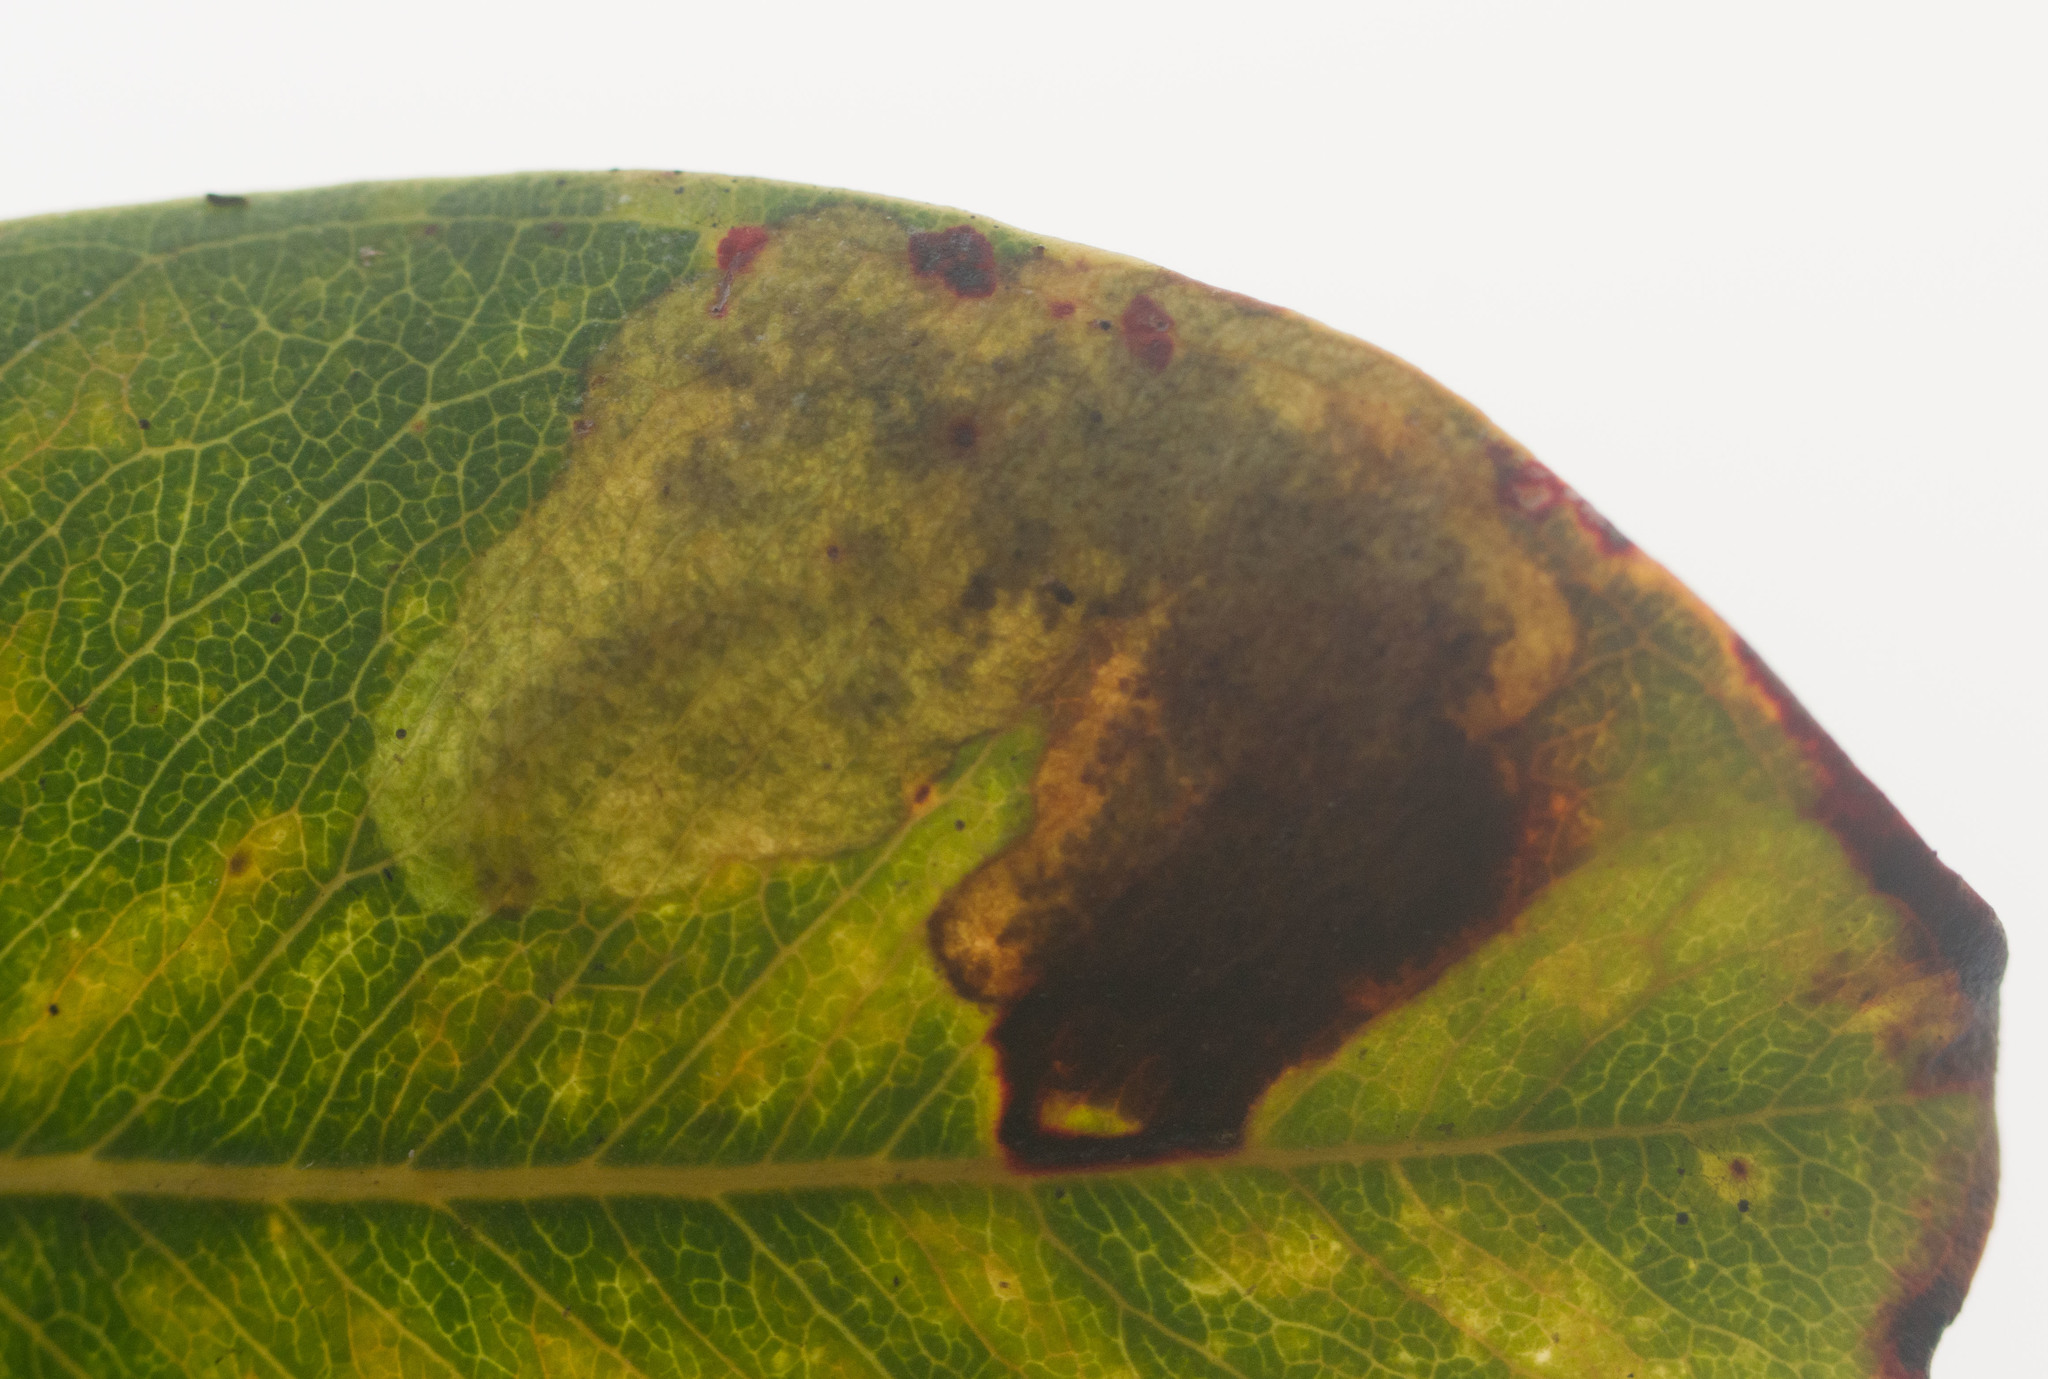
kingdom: Animalia
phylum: Arthropoda
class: Insecta
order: Lepidoptera
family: Gracillariidae
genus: Philodoria
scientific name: Philodoria splendida
